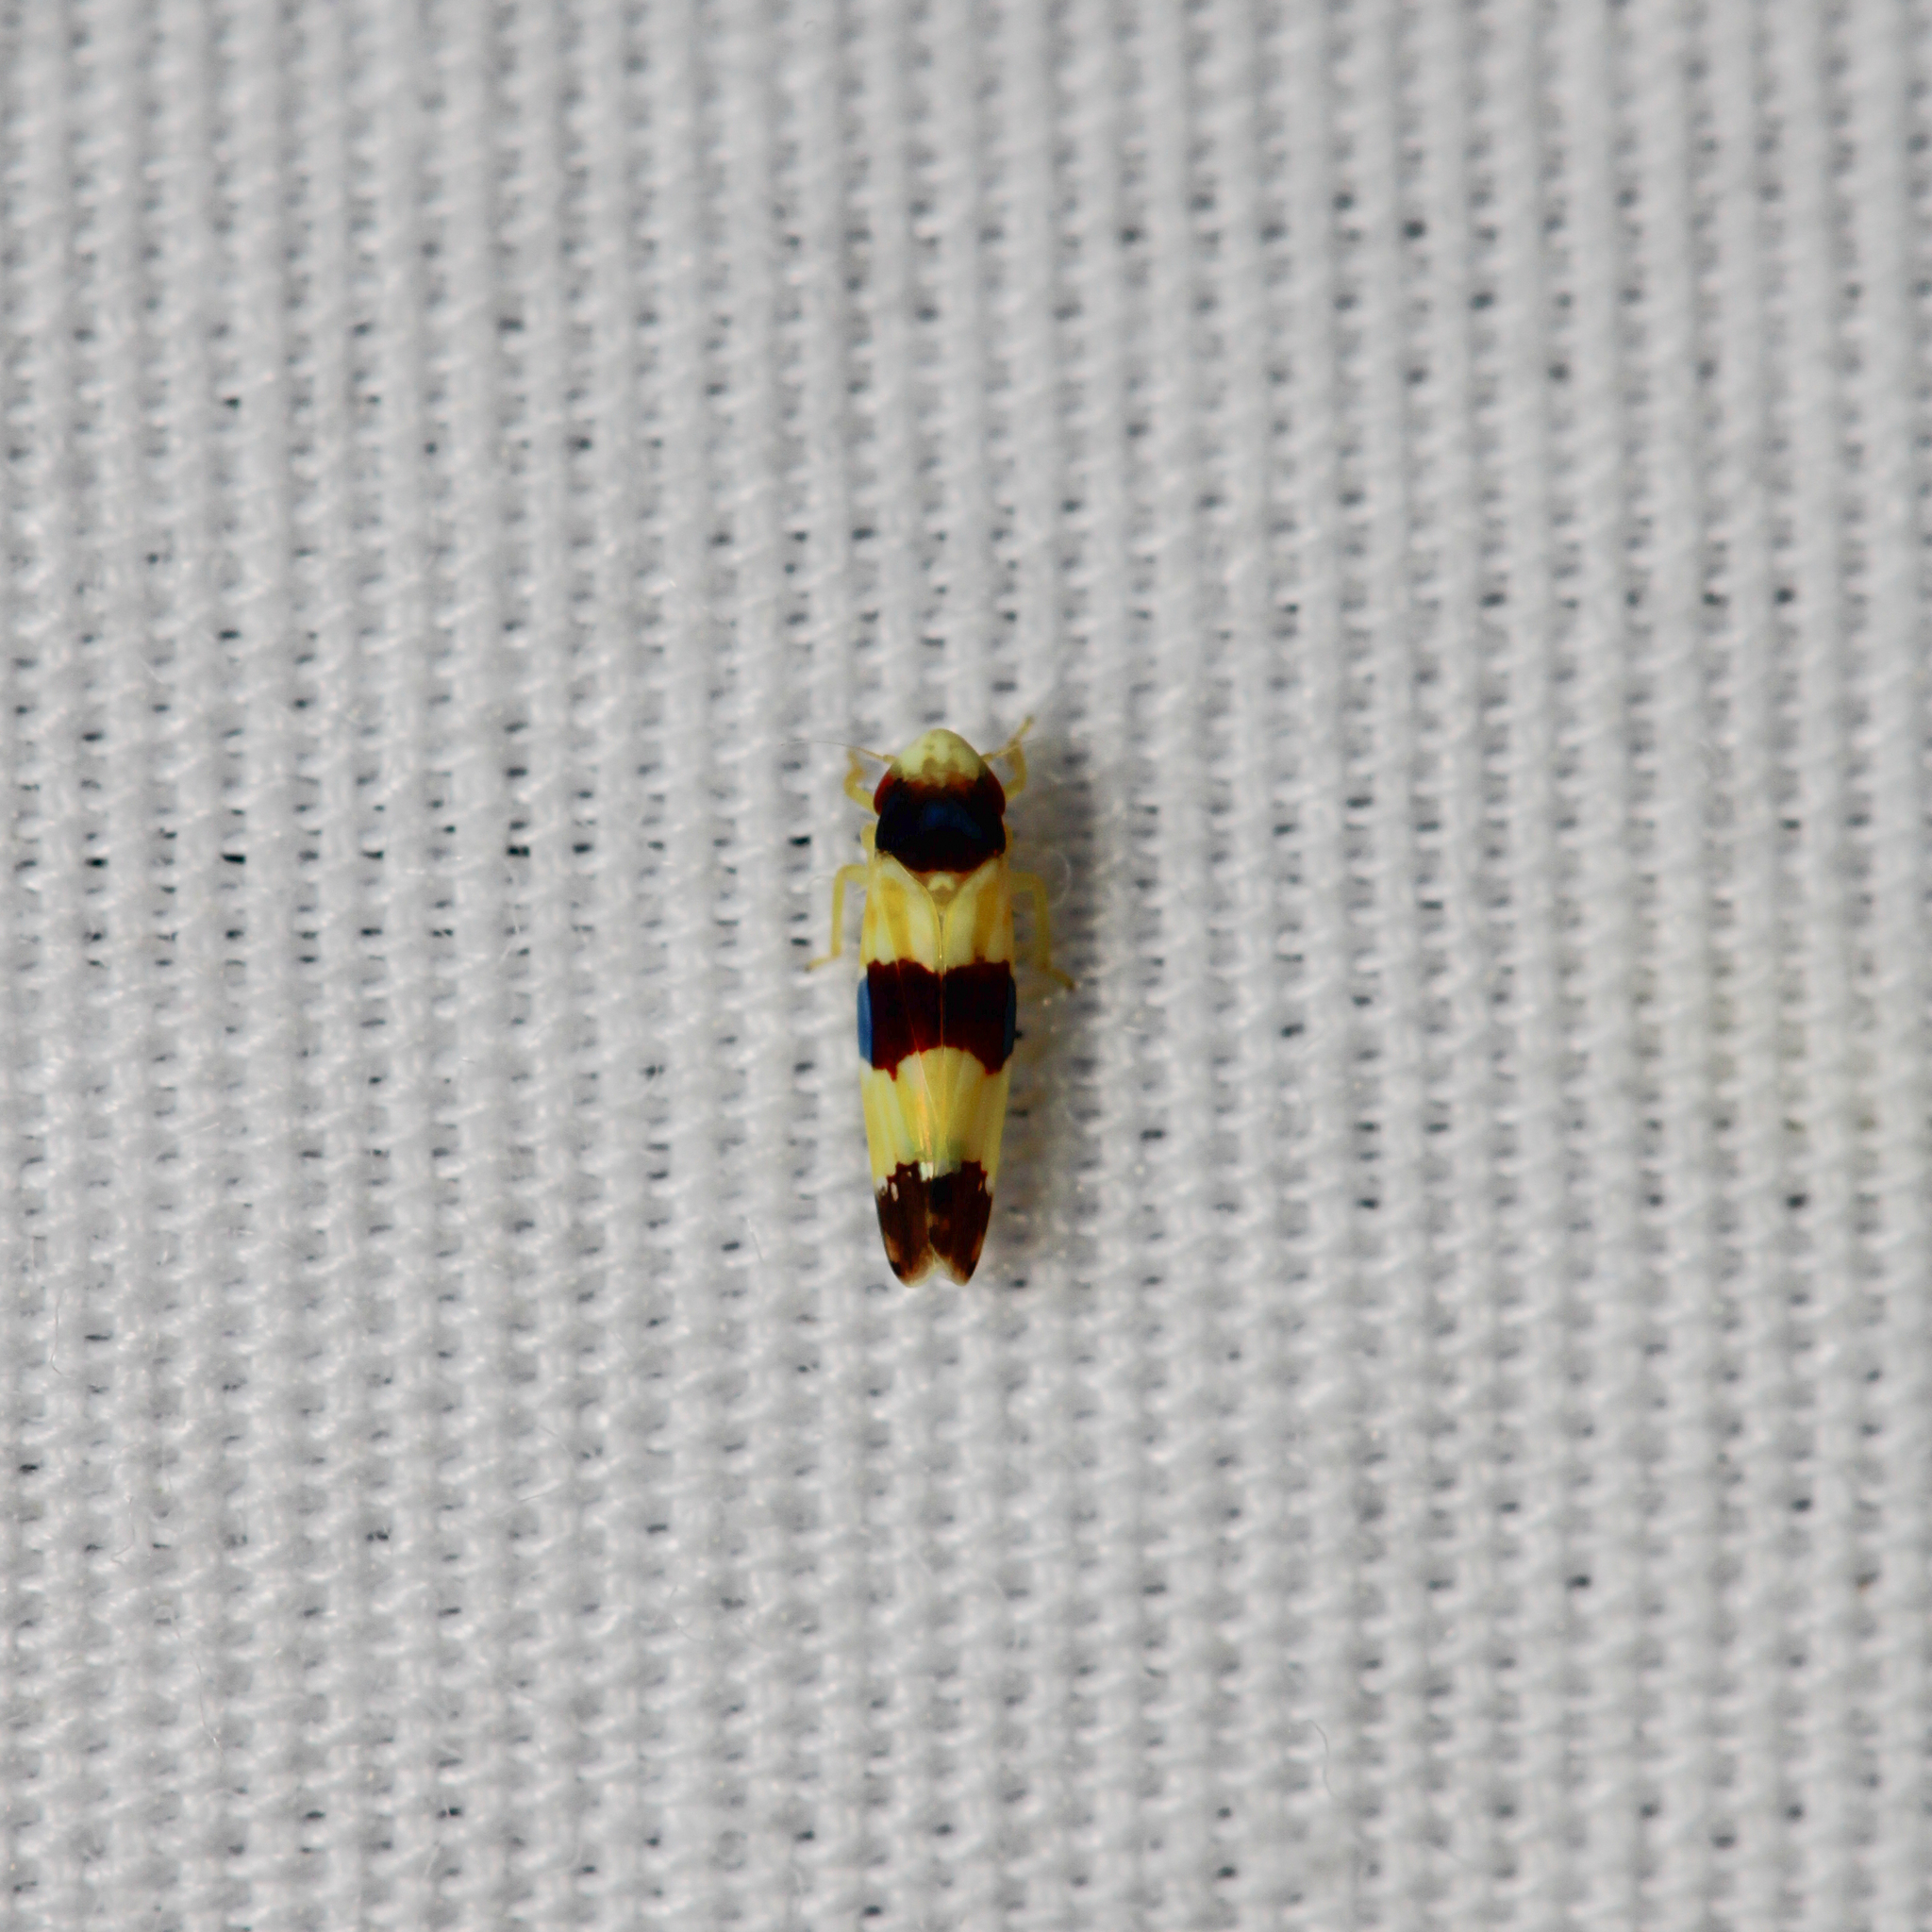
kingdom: Animalia
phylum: Arthropoda
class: Insecta
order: Hemiptera
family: Cicadellidae
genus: Erythroneura
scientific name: Erythroneura tricincta
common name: The threebanded grape leafhopper
